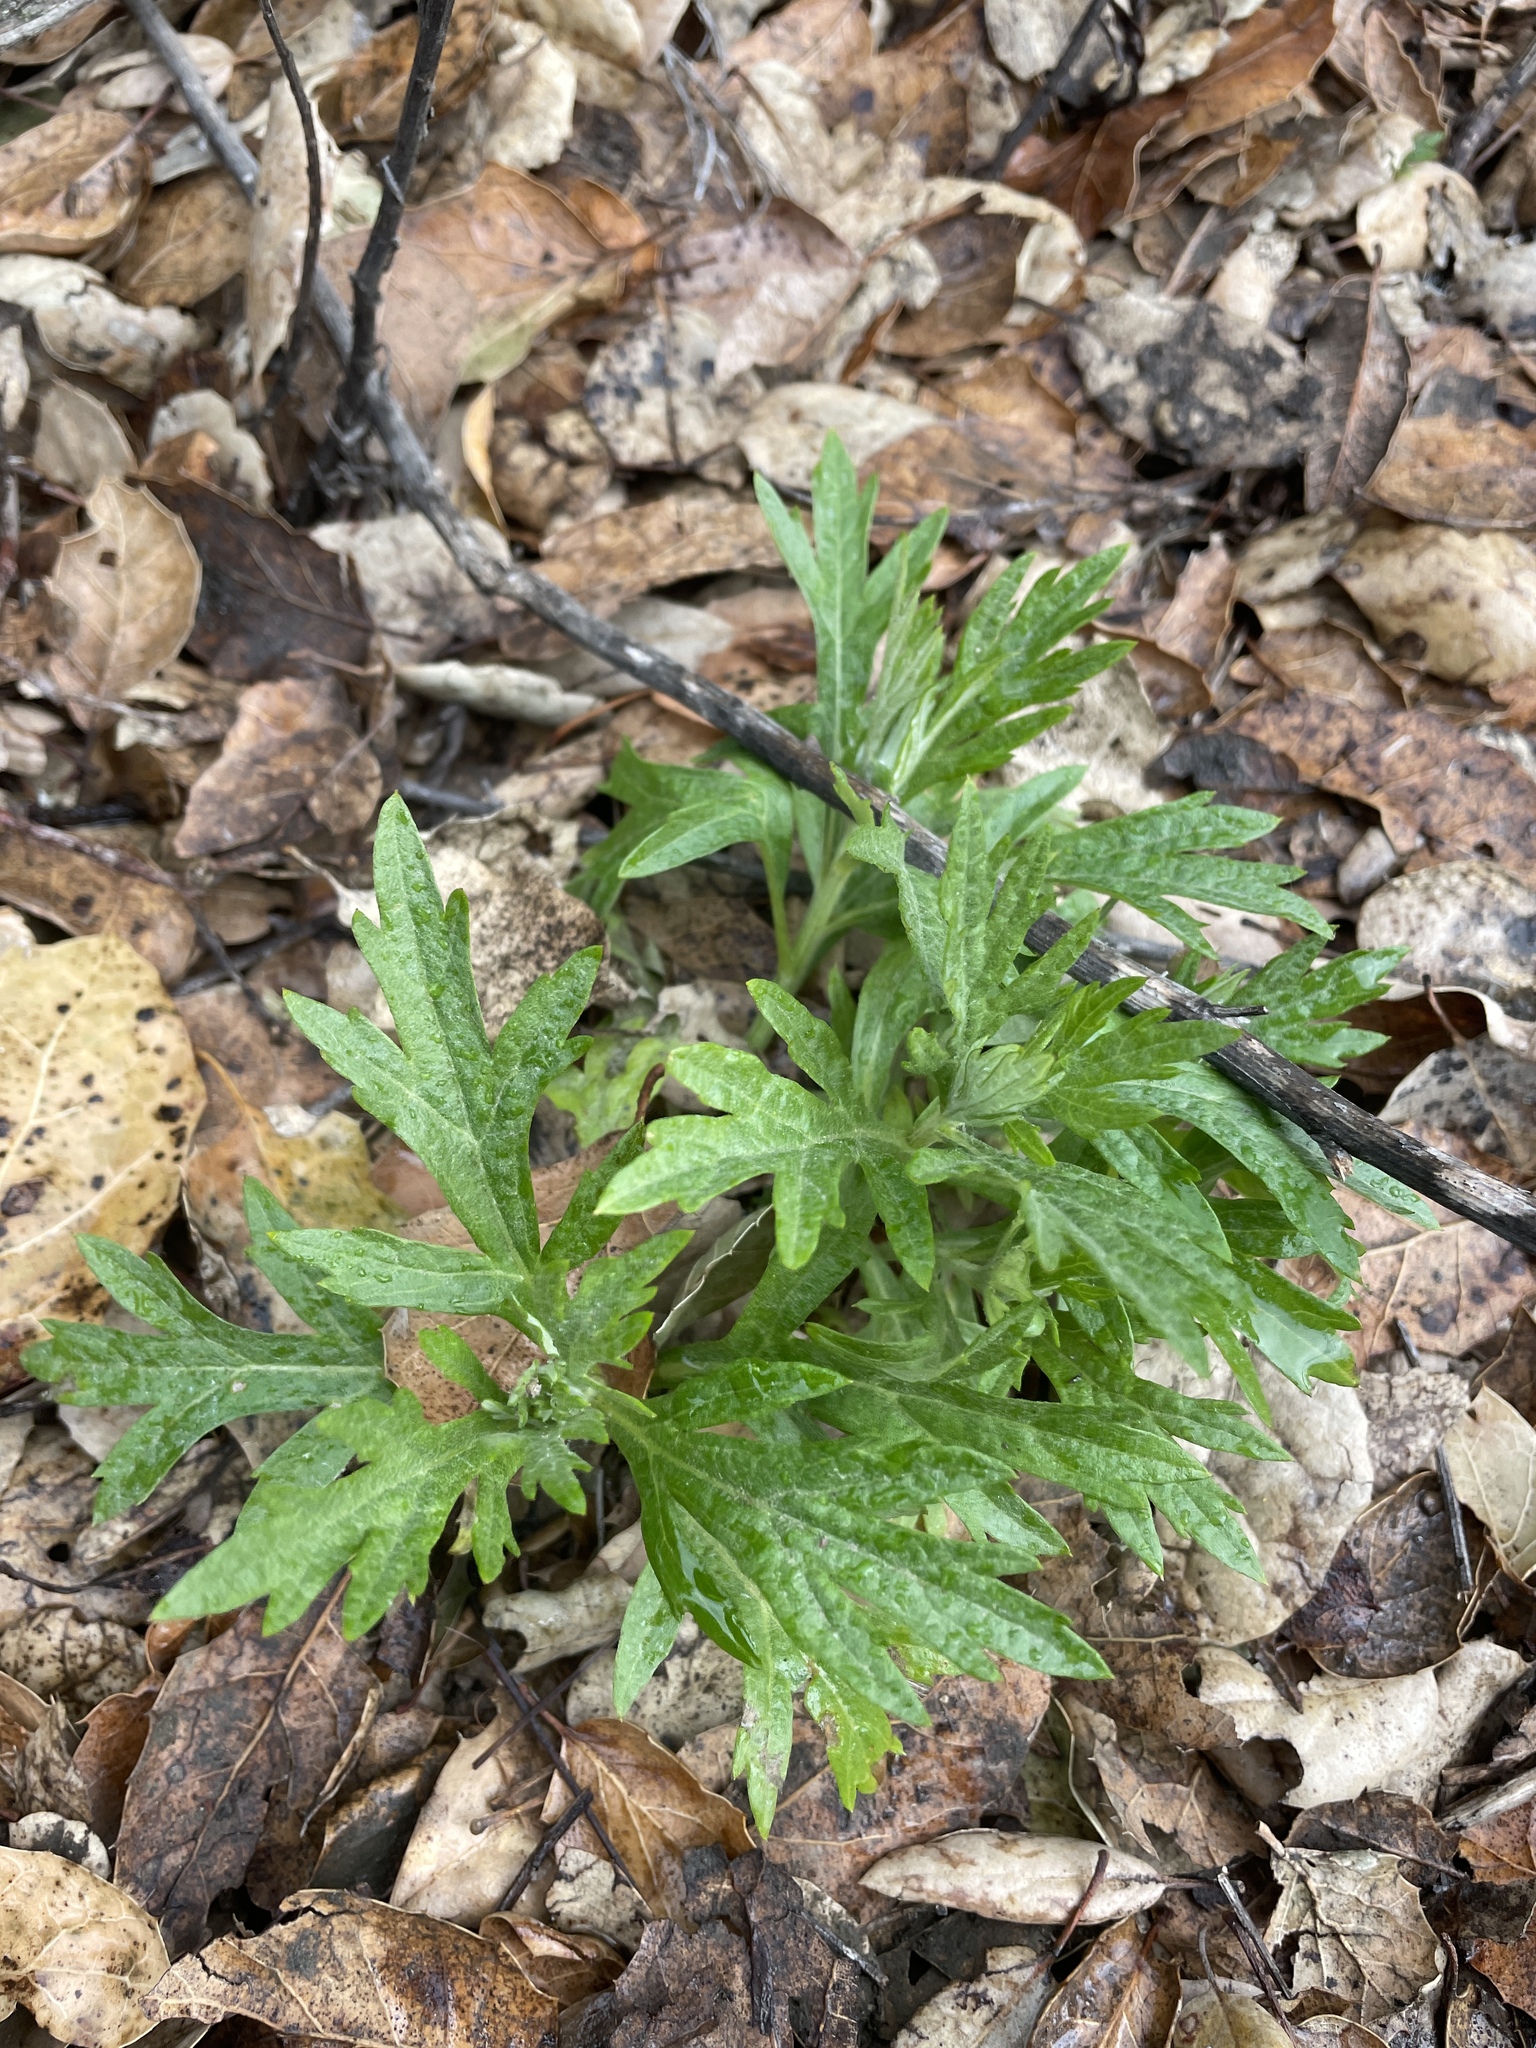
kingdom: Plantae
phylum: Tracheophyta
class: Magnoliopsida
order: Asterales
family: Asteraceae
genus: Artemisia
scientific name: Artemisia douglasiana
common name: Northwest mugwort
